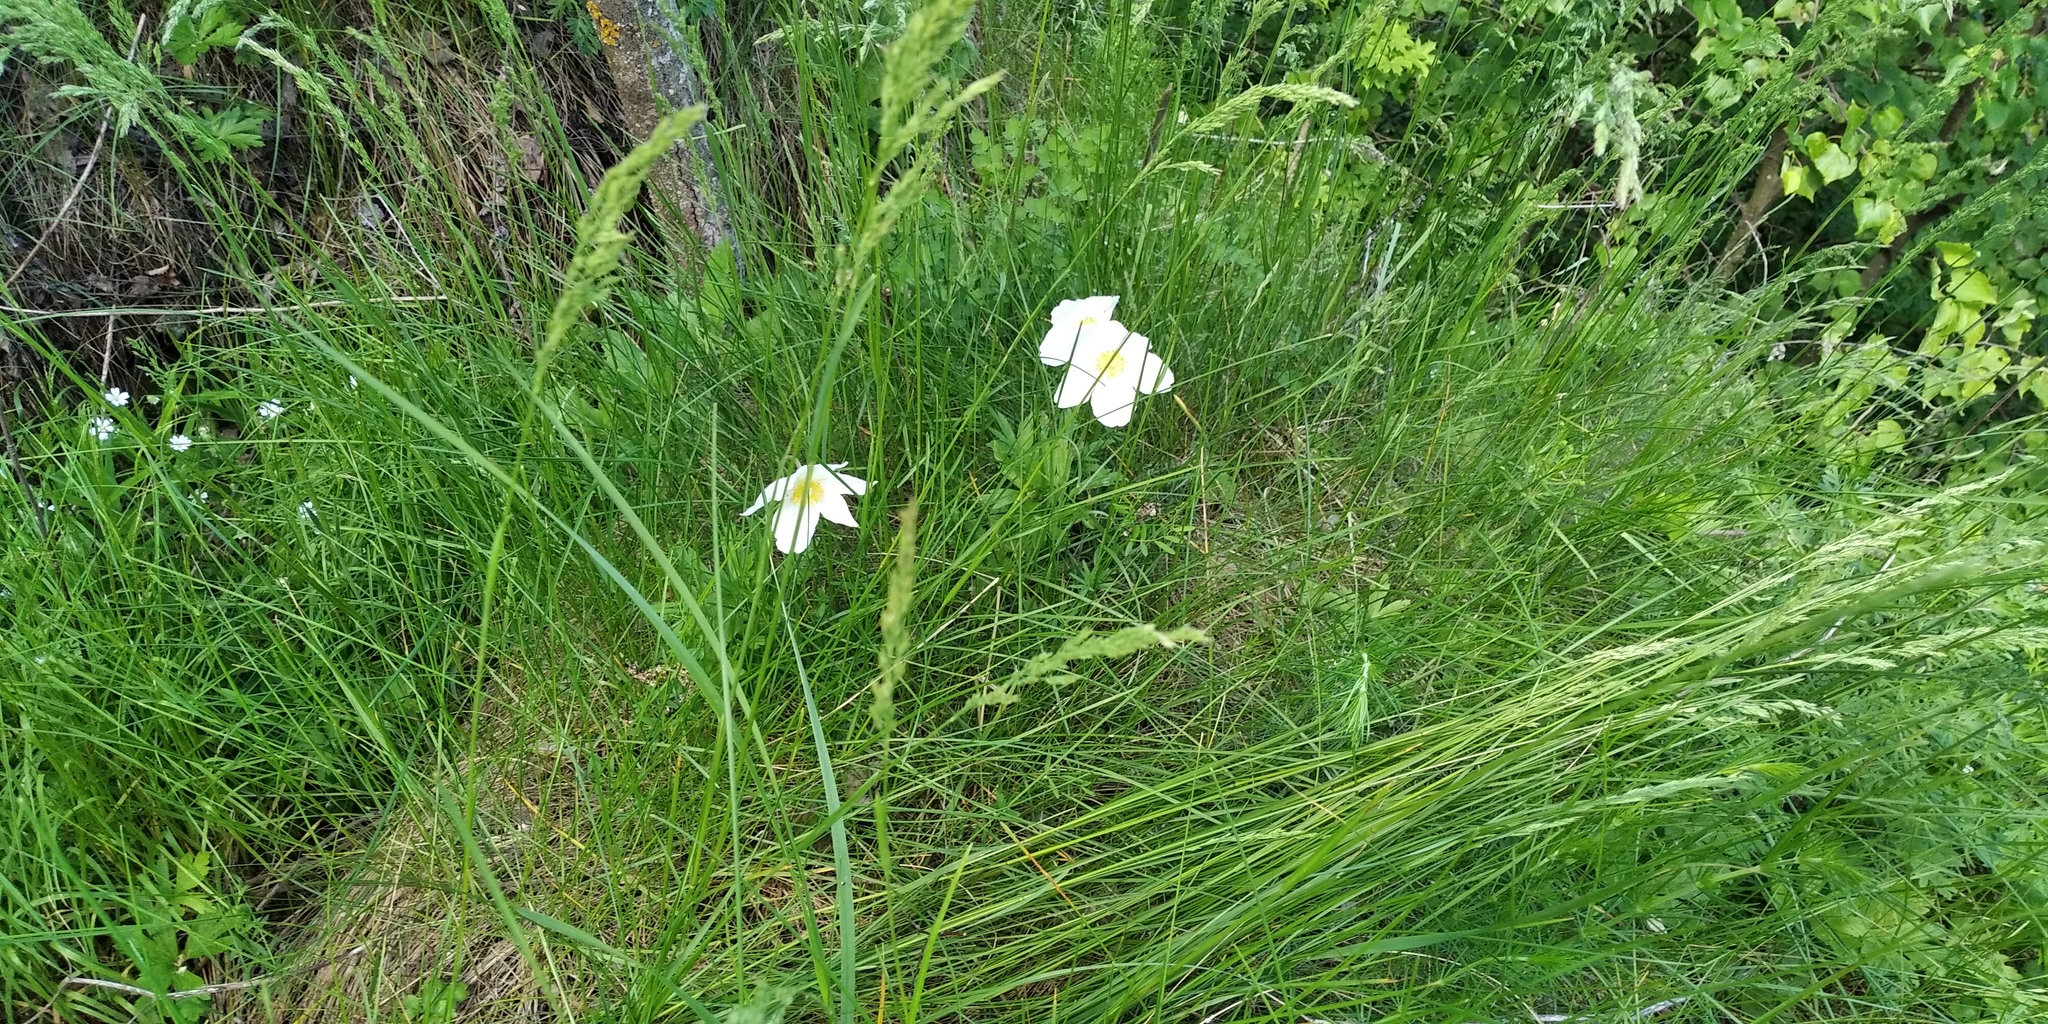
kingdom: Plantae
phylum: Tracheophyta
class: Magnoliopsida
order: Ranunculales
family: Ranunculaceae
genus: Anemone
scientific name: Anemone sylvestris
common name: Snowdrop anemone
